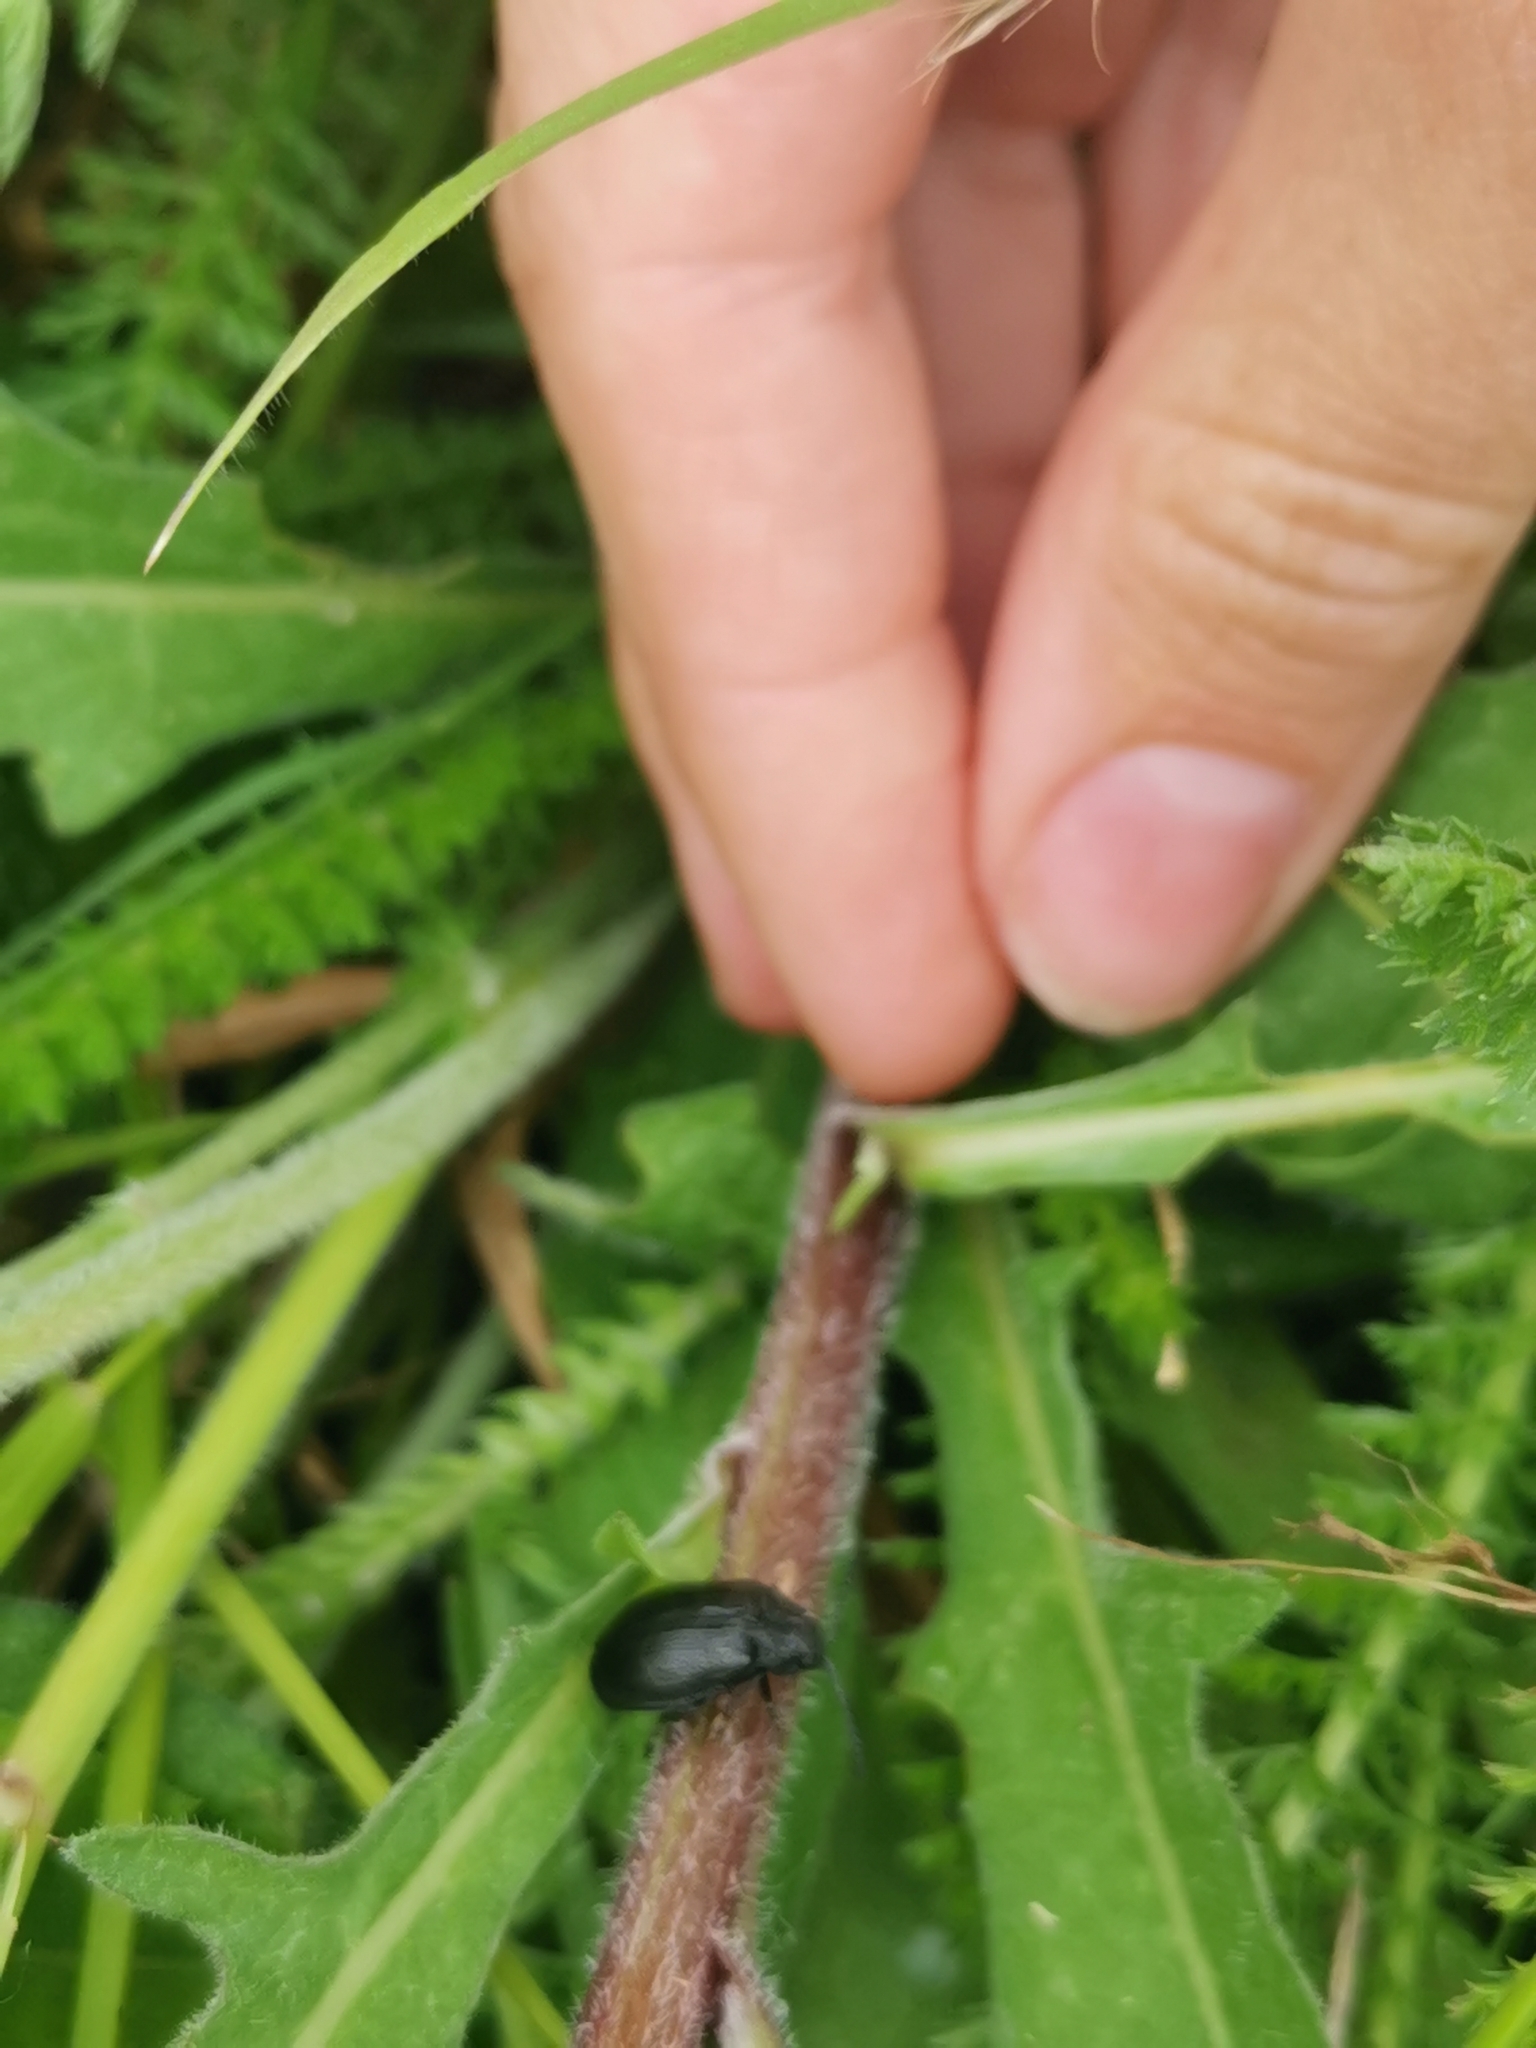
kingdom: Animalia
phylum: Arthropoda
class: Insecta
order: Coleoptera
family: Chrysomelidae
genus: Galeruca
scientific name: Galeruca tanaceti
